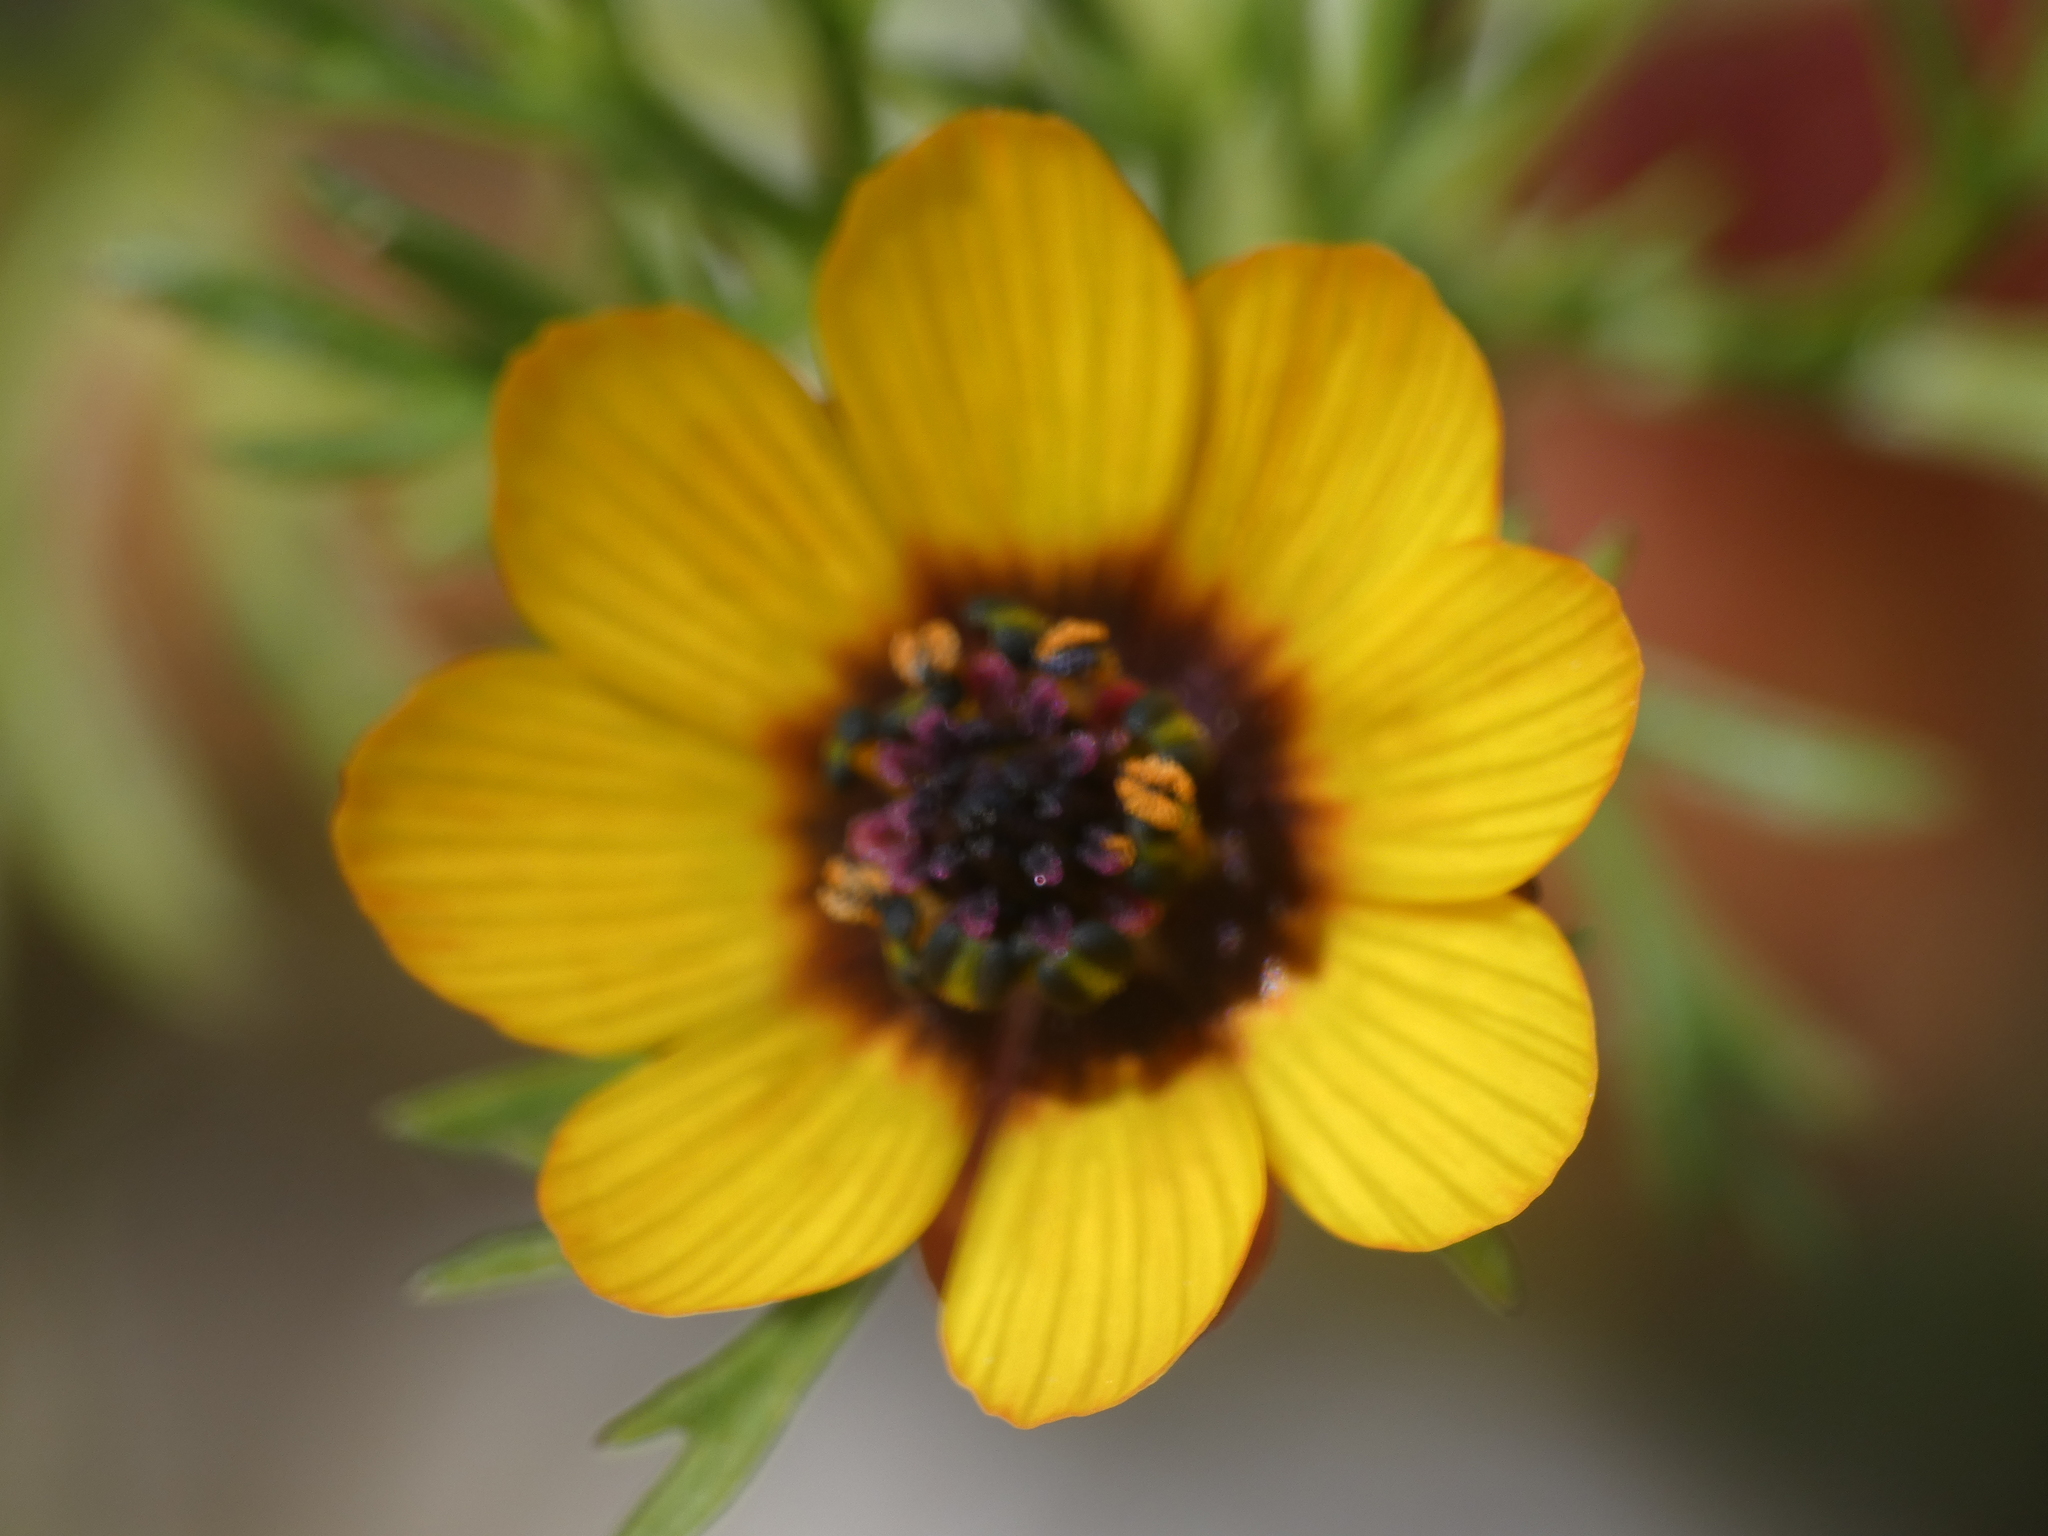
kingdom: Plantae
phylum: Tracheophyta
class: Magnoliopsida
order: Ranunculales
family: Ranunculaceae
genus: Adonis
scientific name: Adonis microcarpa
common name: Pheasant's-eye
